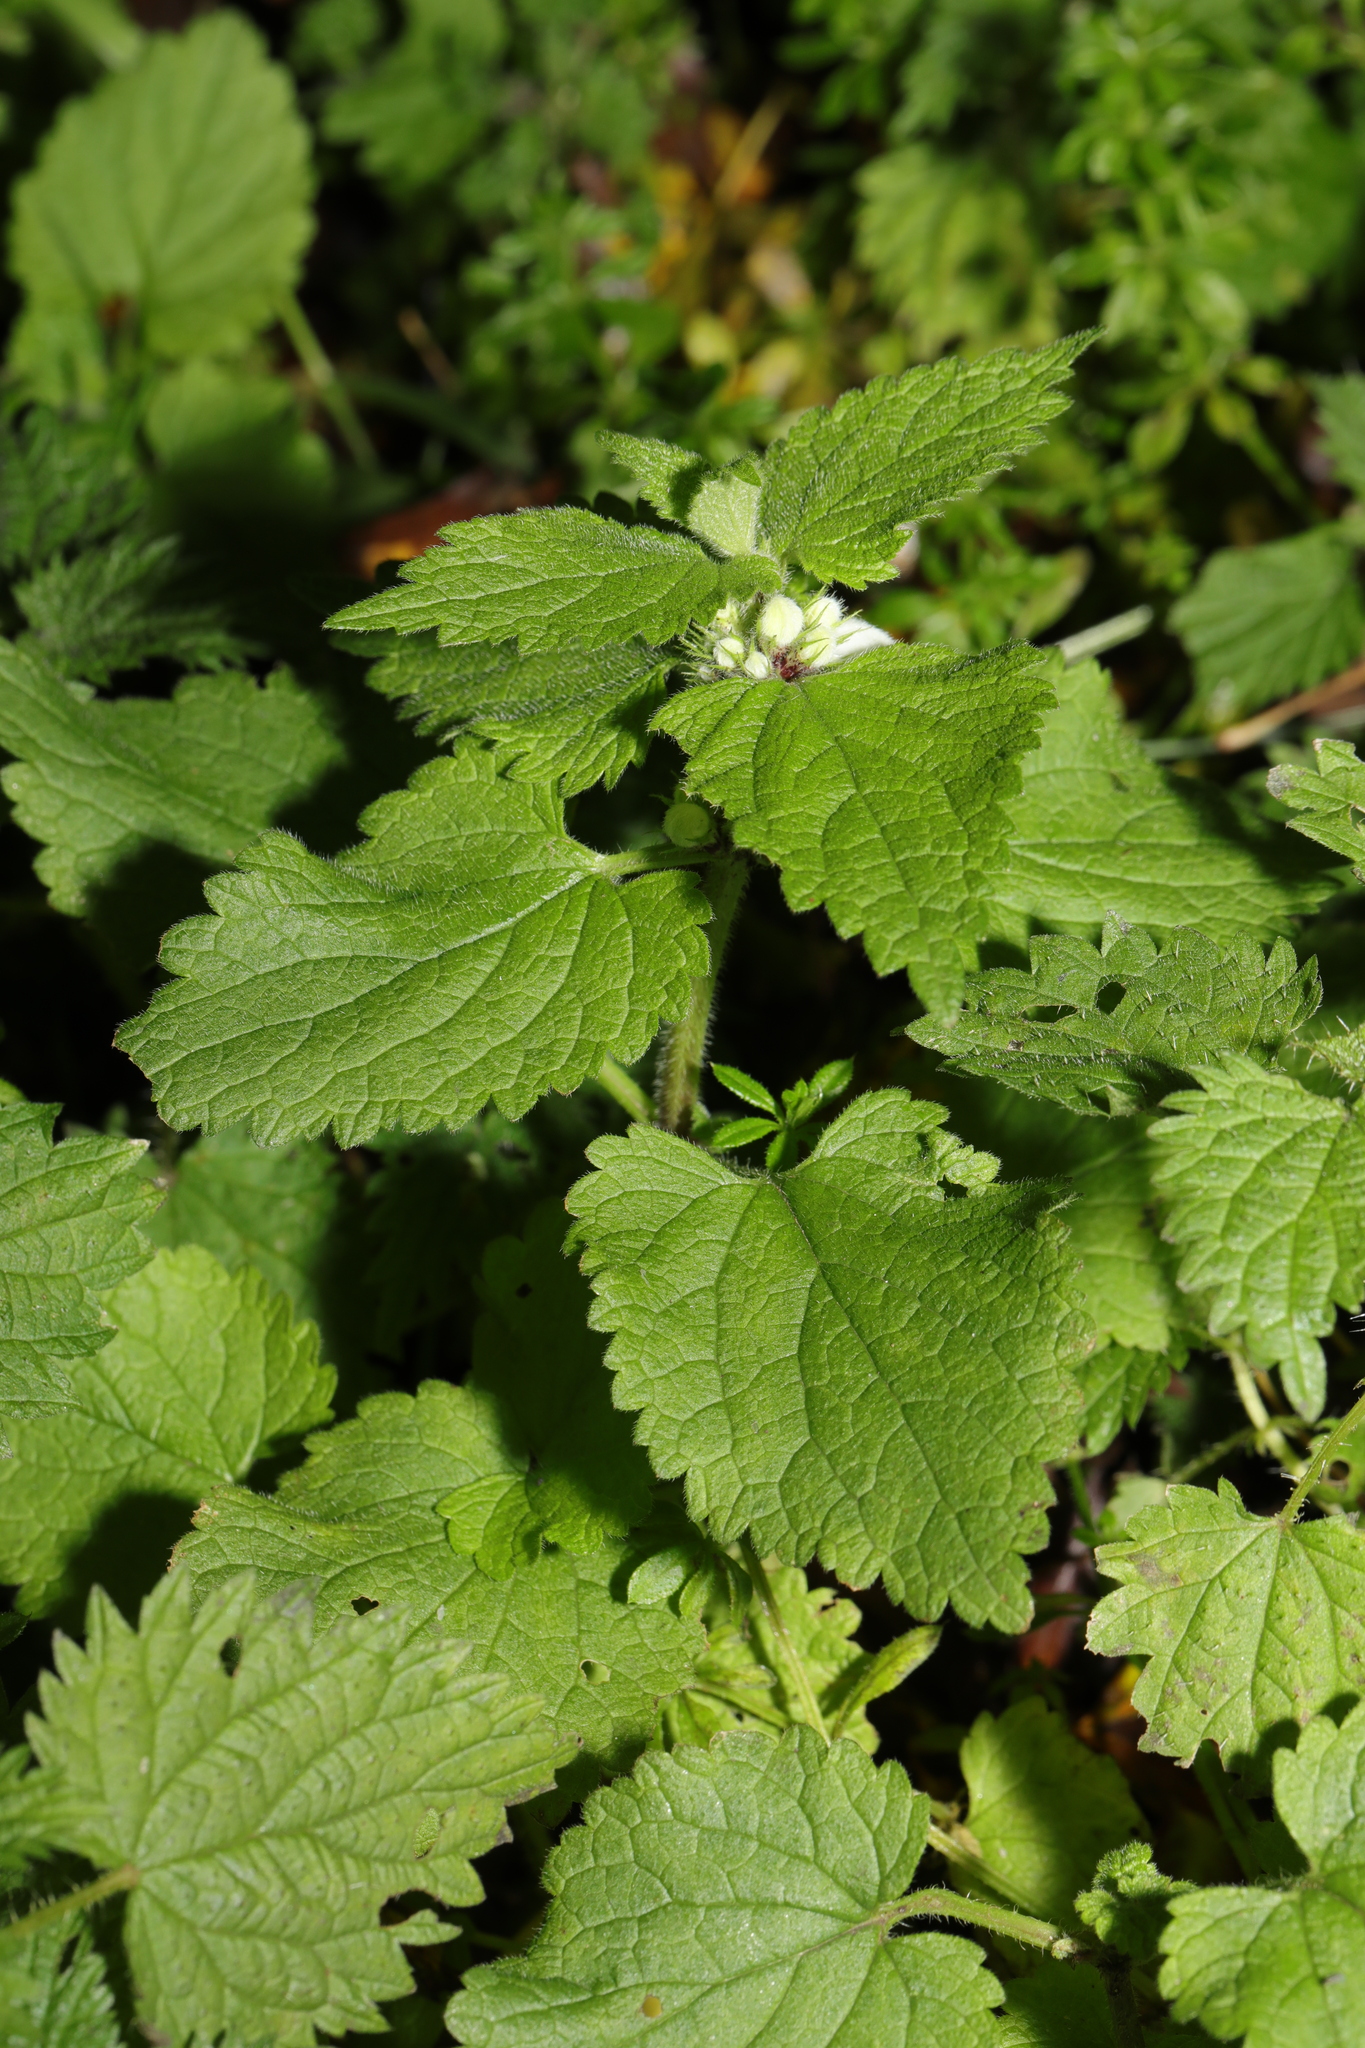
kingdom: Plantae
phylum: Tracheophyta
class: Magnoliopsida
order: Lamiales
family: Lamiaceae
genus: Lamium
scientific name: Lamium album
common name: White dead-nettle
